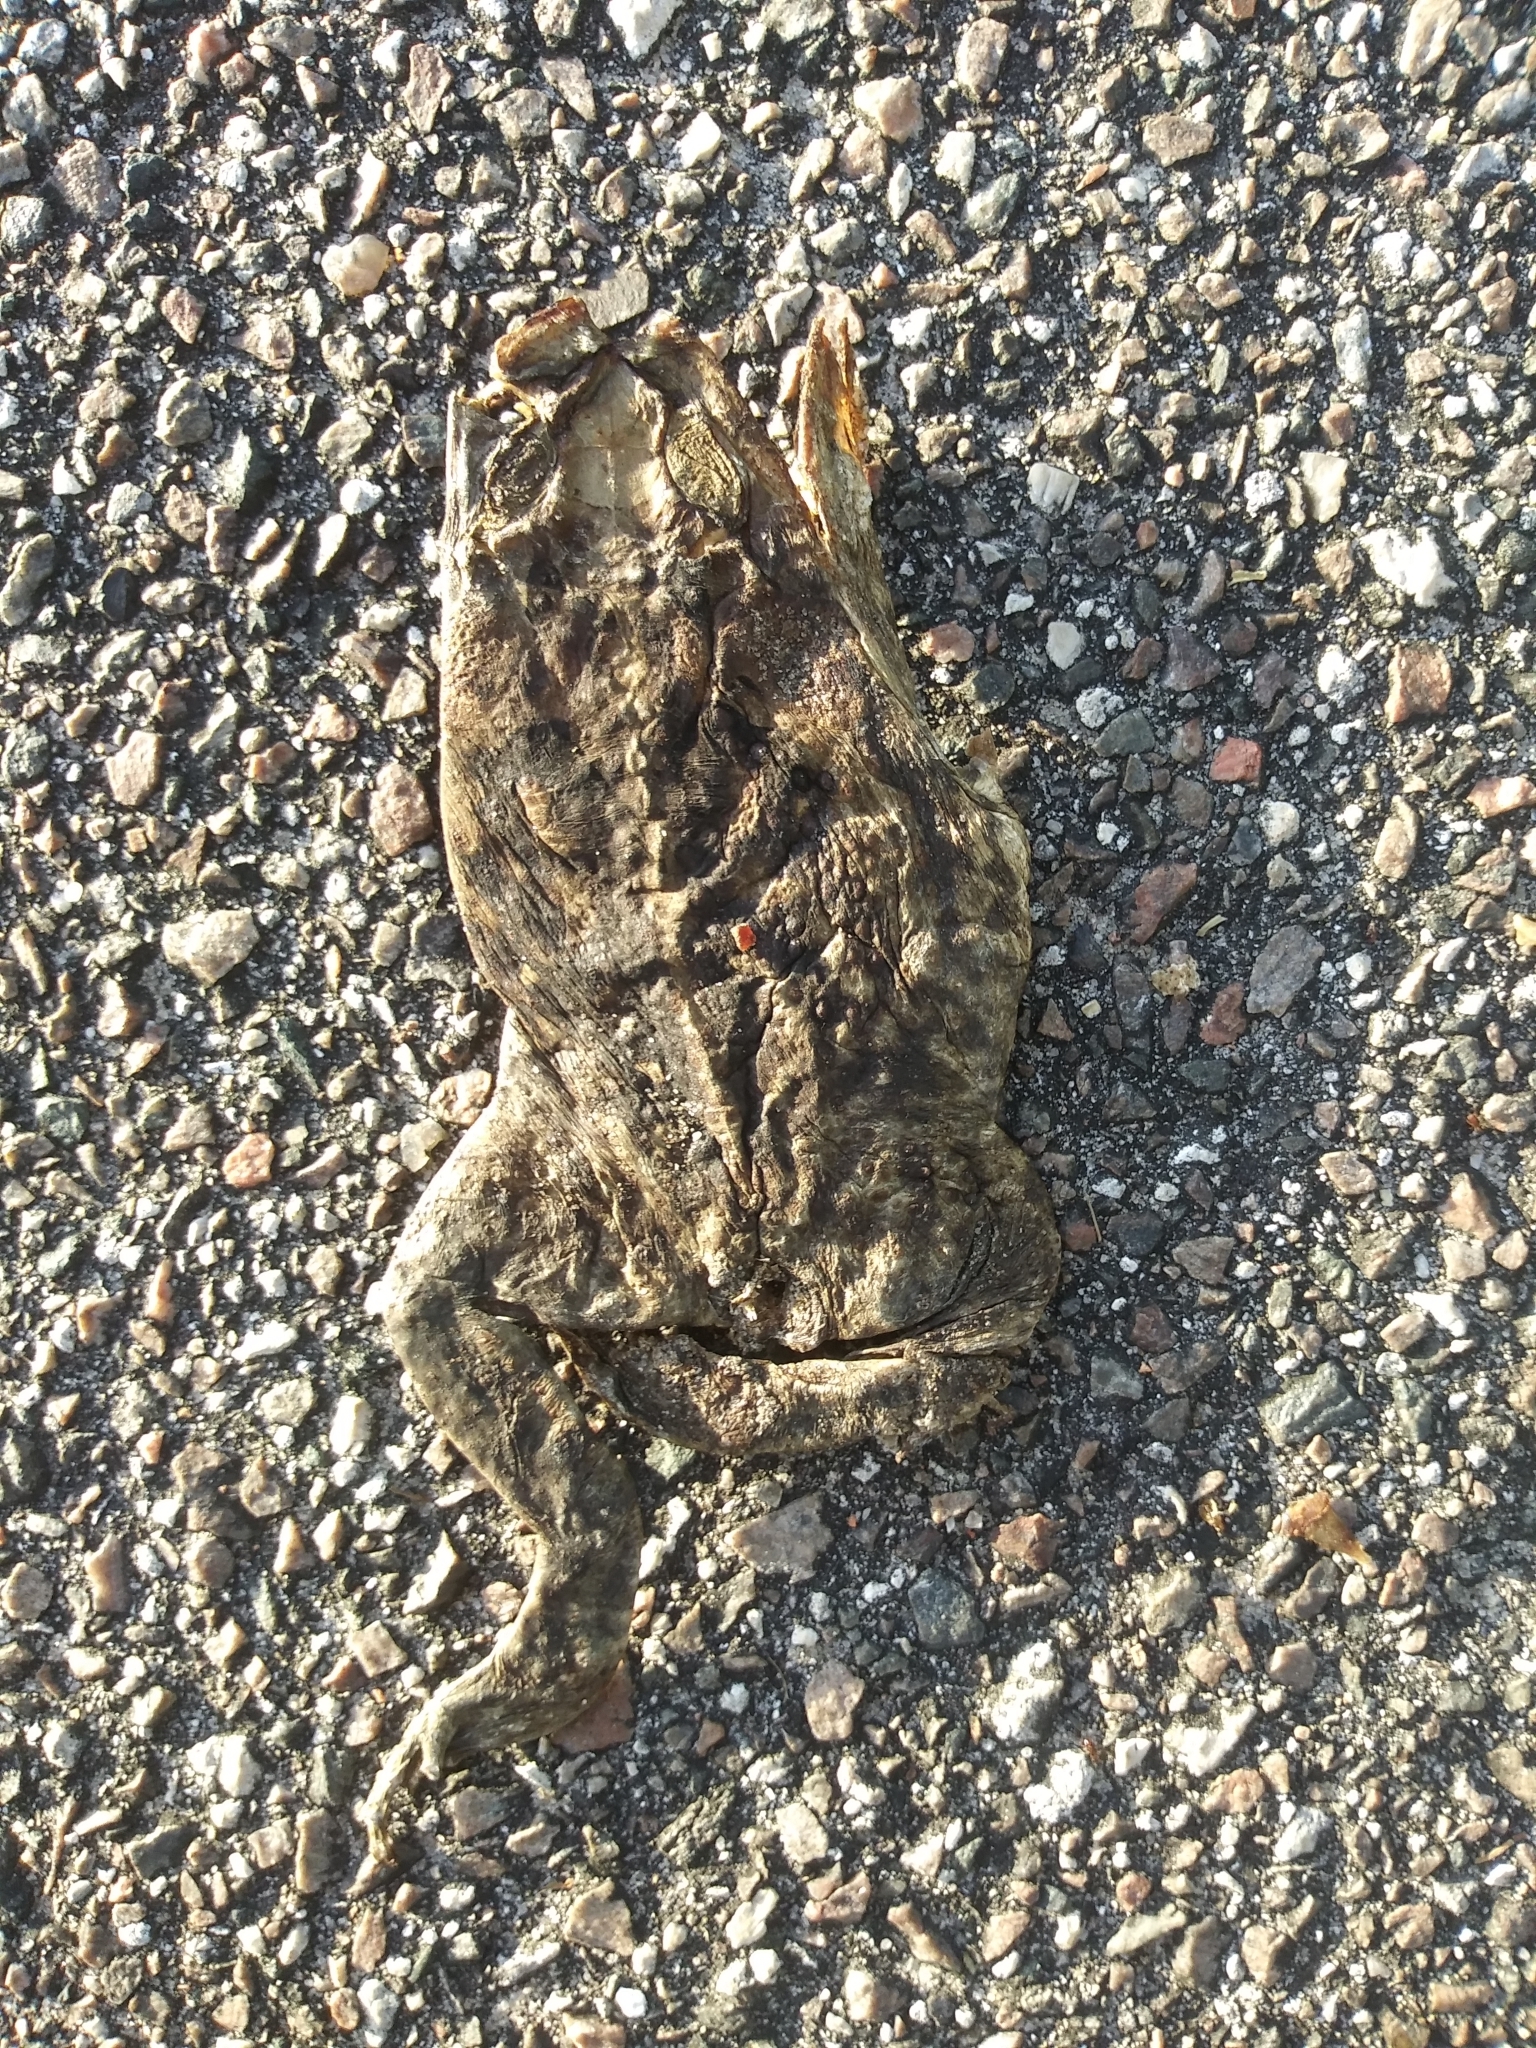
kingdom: Animalia
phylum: Chordata
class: Amphibia
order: Anura
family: Bufonidae
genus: Rhinella
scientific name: Rhinella marina
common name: Cane toad
